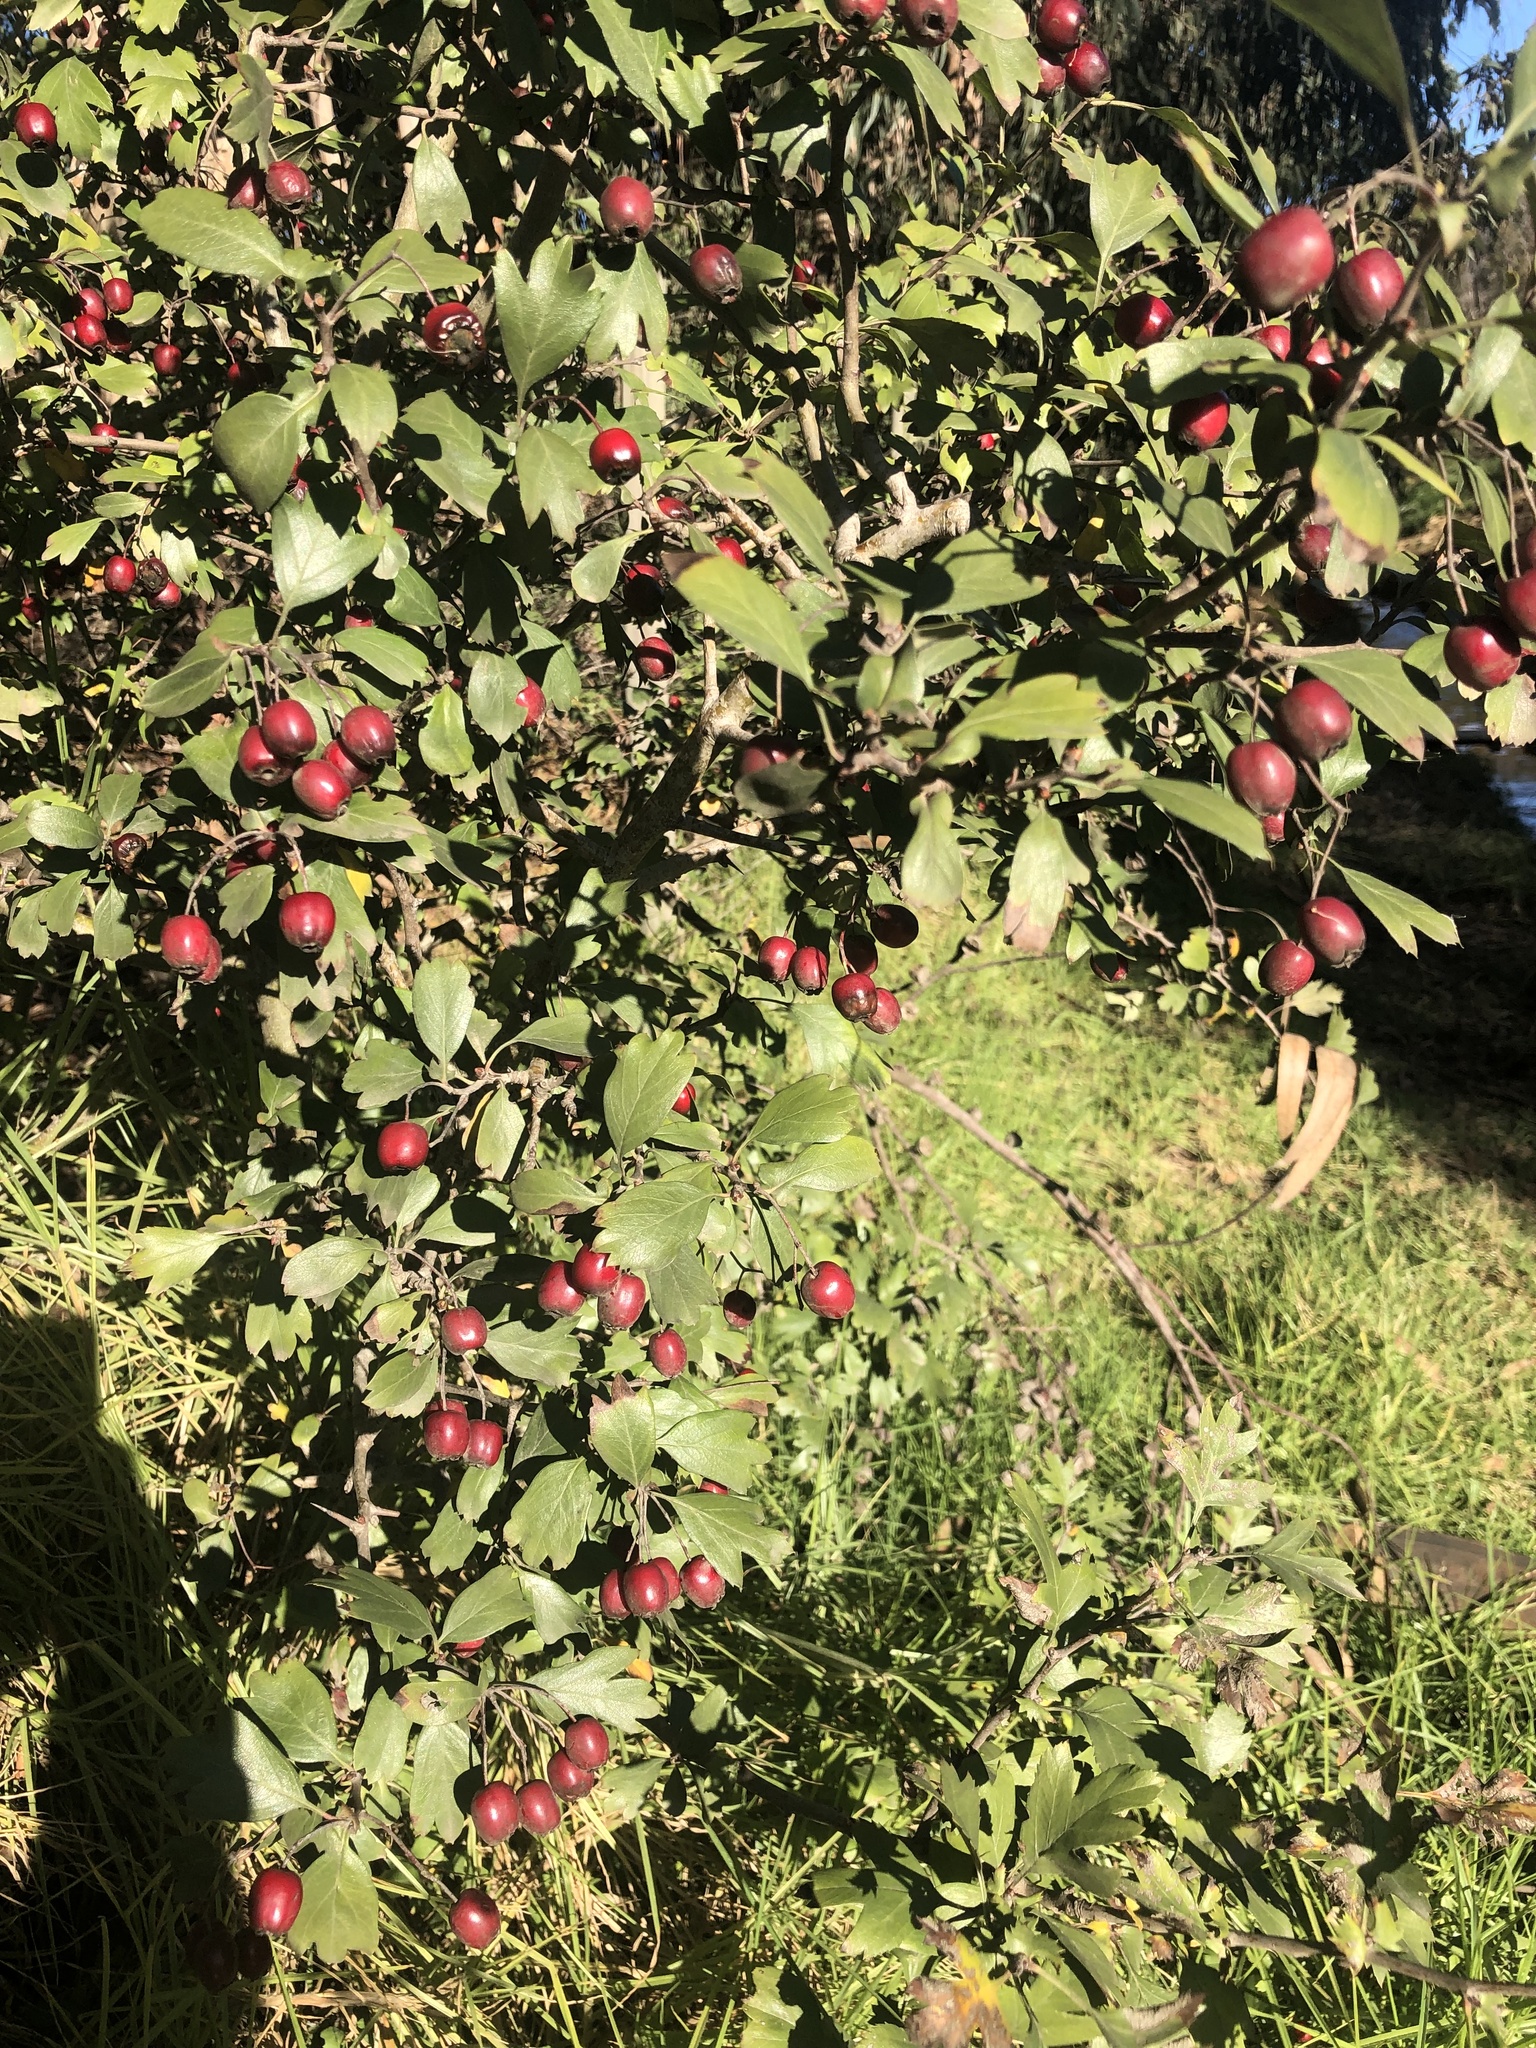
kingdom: Plantae
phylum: Tracheophyta
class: Magnoliopsida
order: Rosales
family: Rosaceae
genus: Crataegus
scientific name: Crataegus monogyna
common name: Hawthorn
